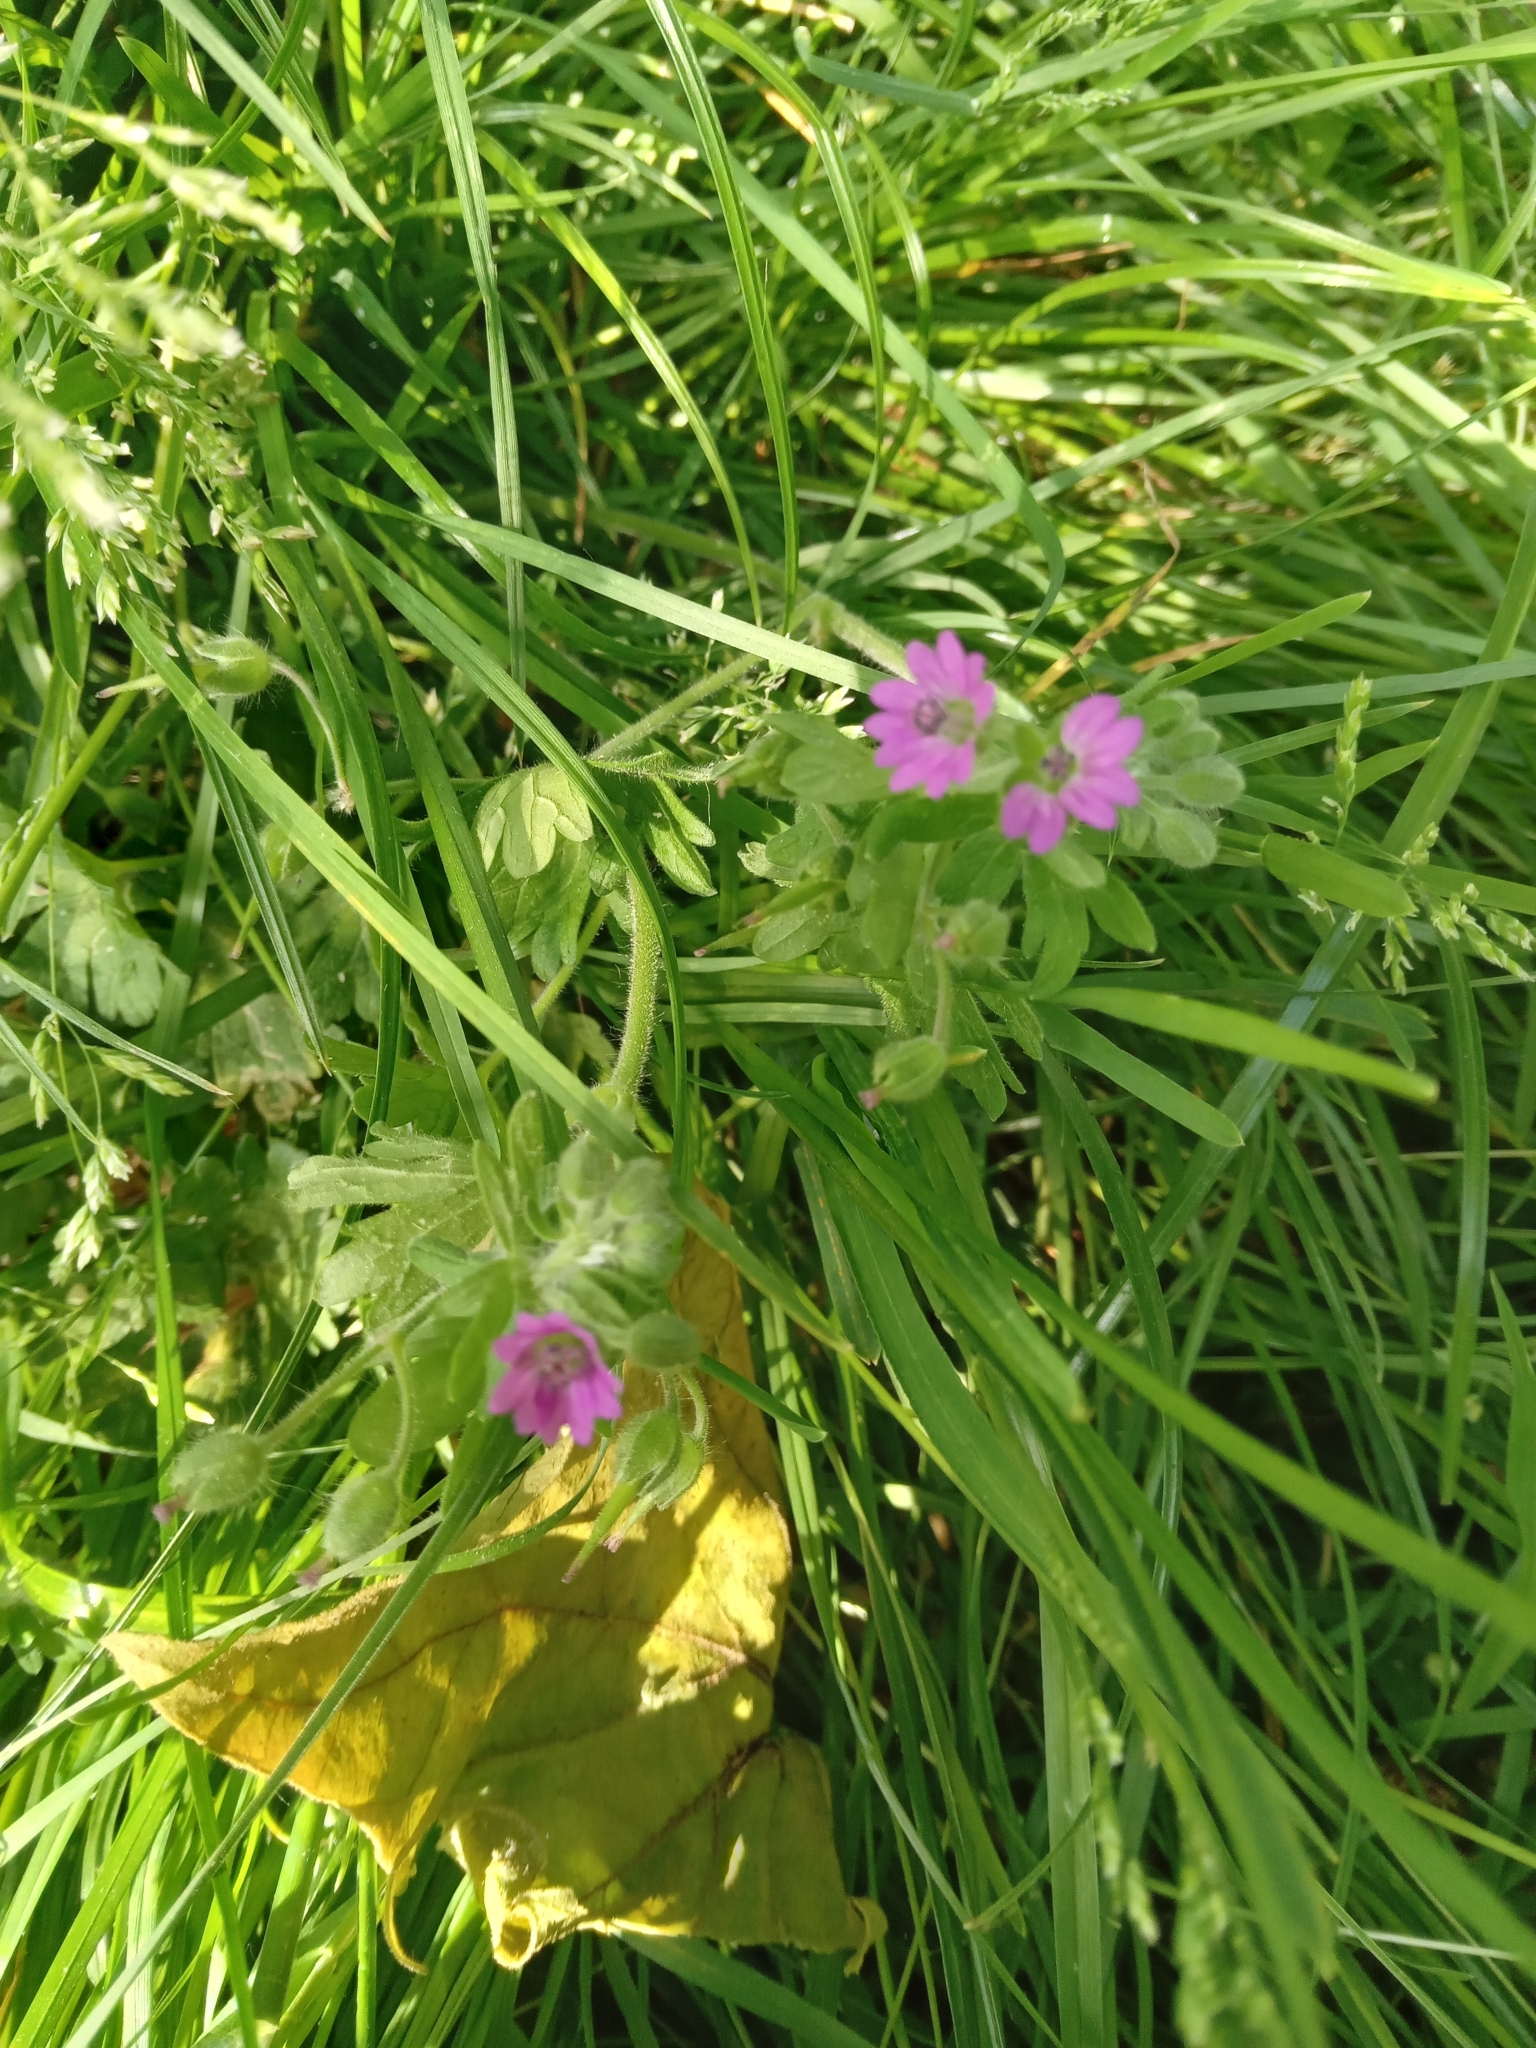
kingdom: Plantae
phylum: Tracheophyta
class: Magnoliopsida
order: Geraniales
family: Geraniaceae
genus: Geranium
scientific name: Geranium molle
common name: Dove's-foot crane's-bill
